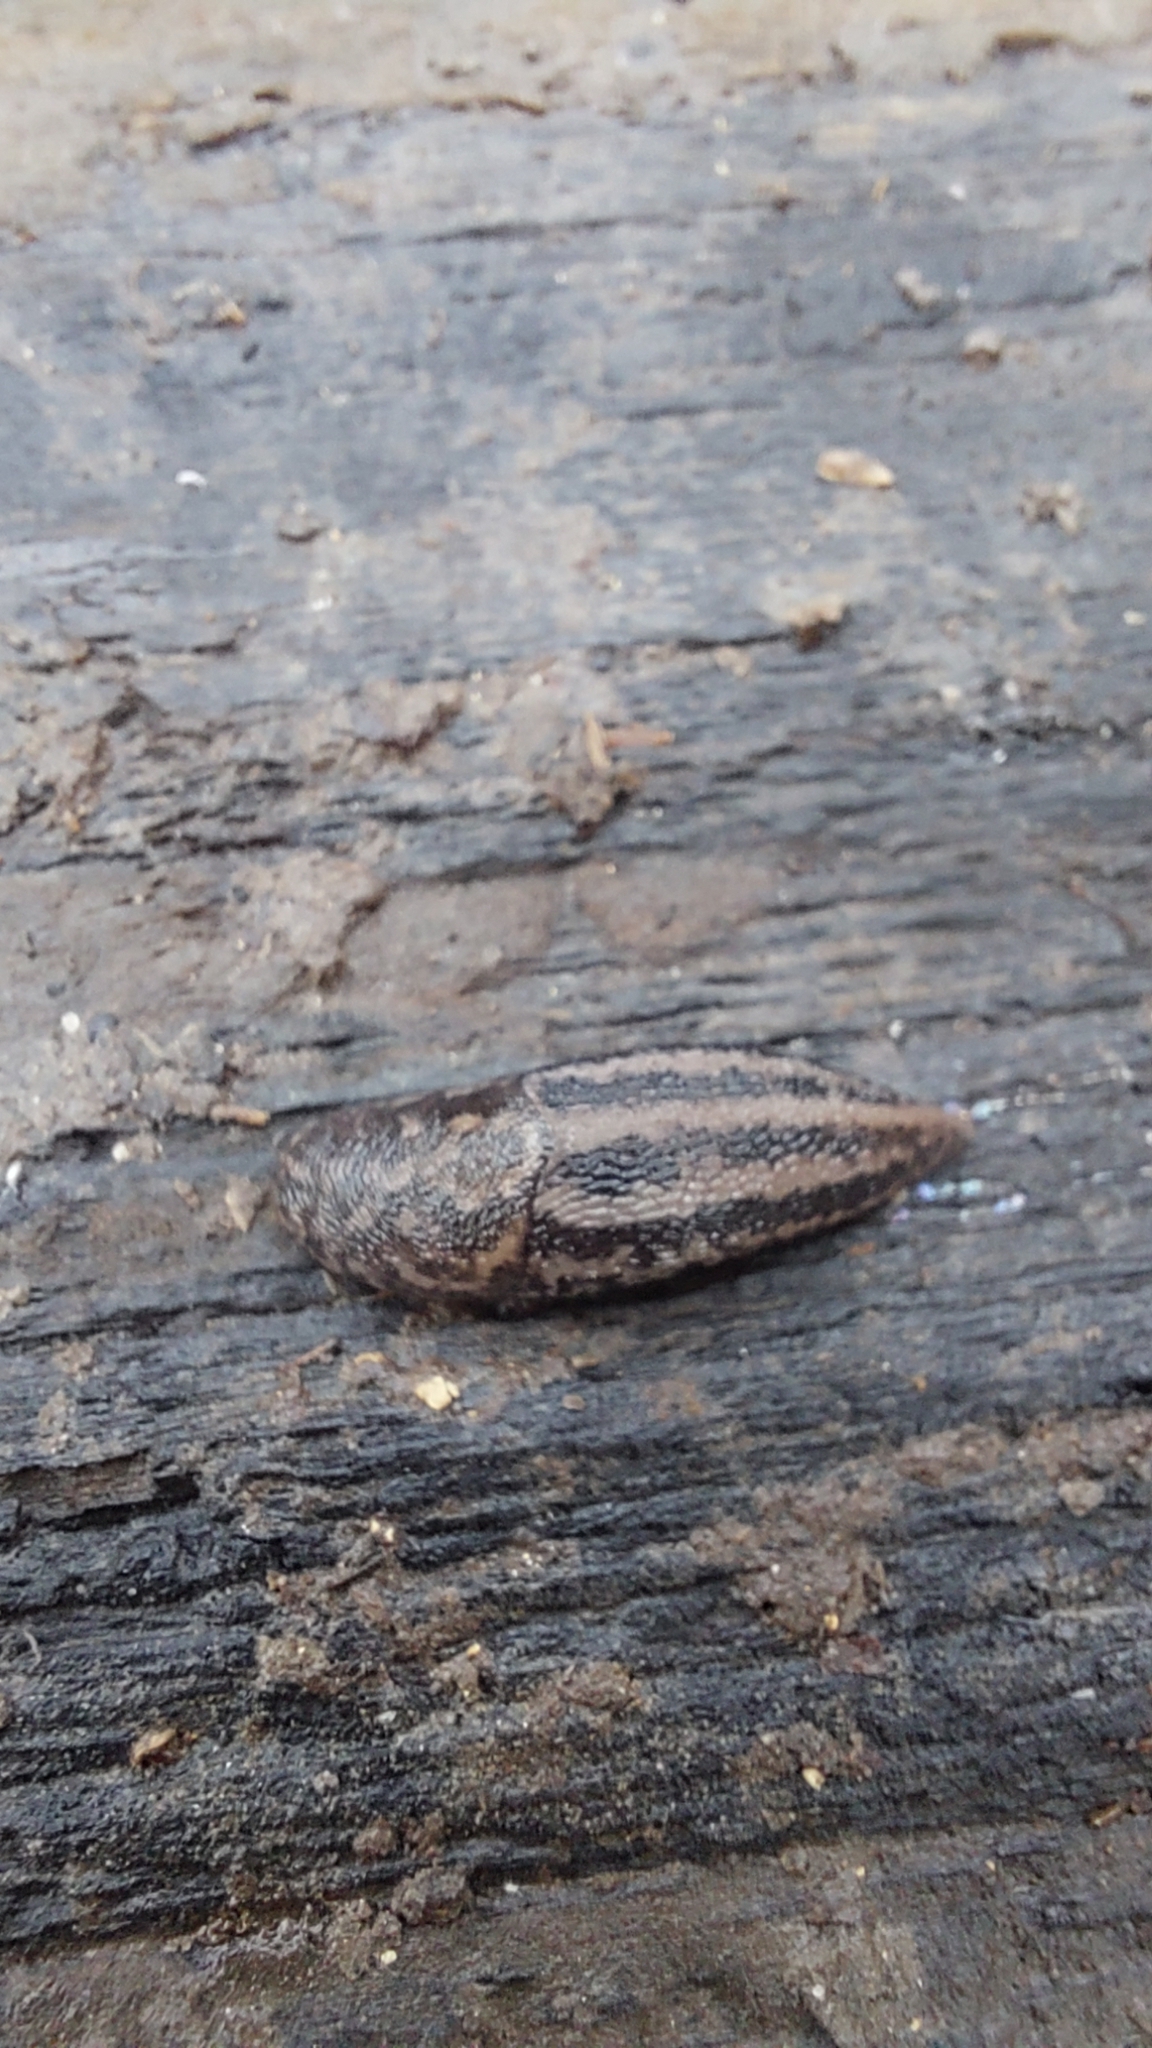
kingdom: Animalia
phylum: Mollusca
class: Gastropoda
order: Stylommatophora
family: Limacidae
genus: Limax
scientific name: Limax maximus
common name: Great grey slug
